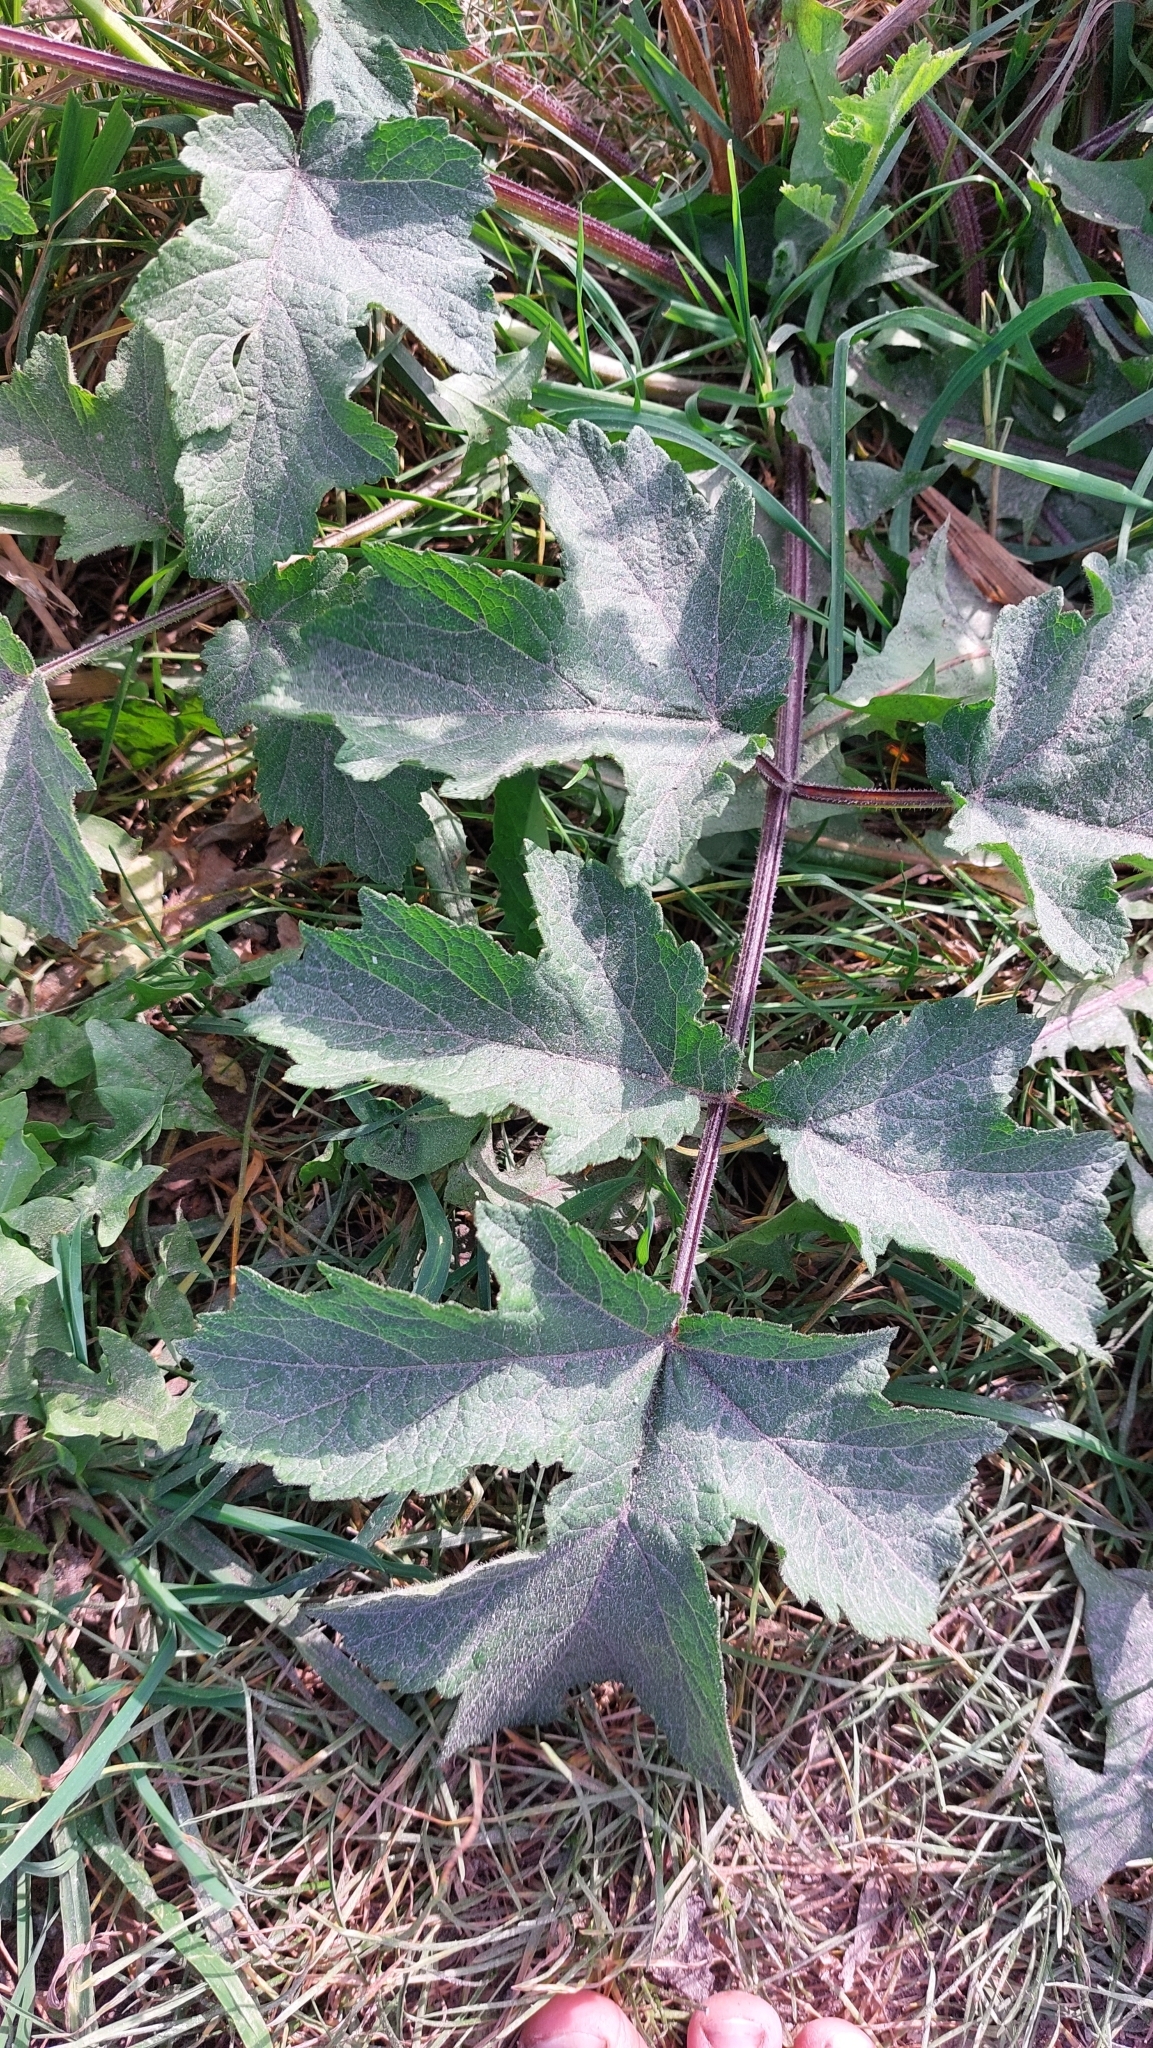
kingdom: Plantae
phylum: Tracheophyta
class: Magnoliopsida
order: Apiales
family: Apiaceae
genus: Heracleum
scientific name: Heracleum sphondylium
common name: Hogweed
